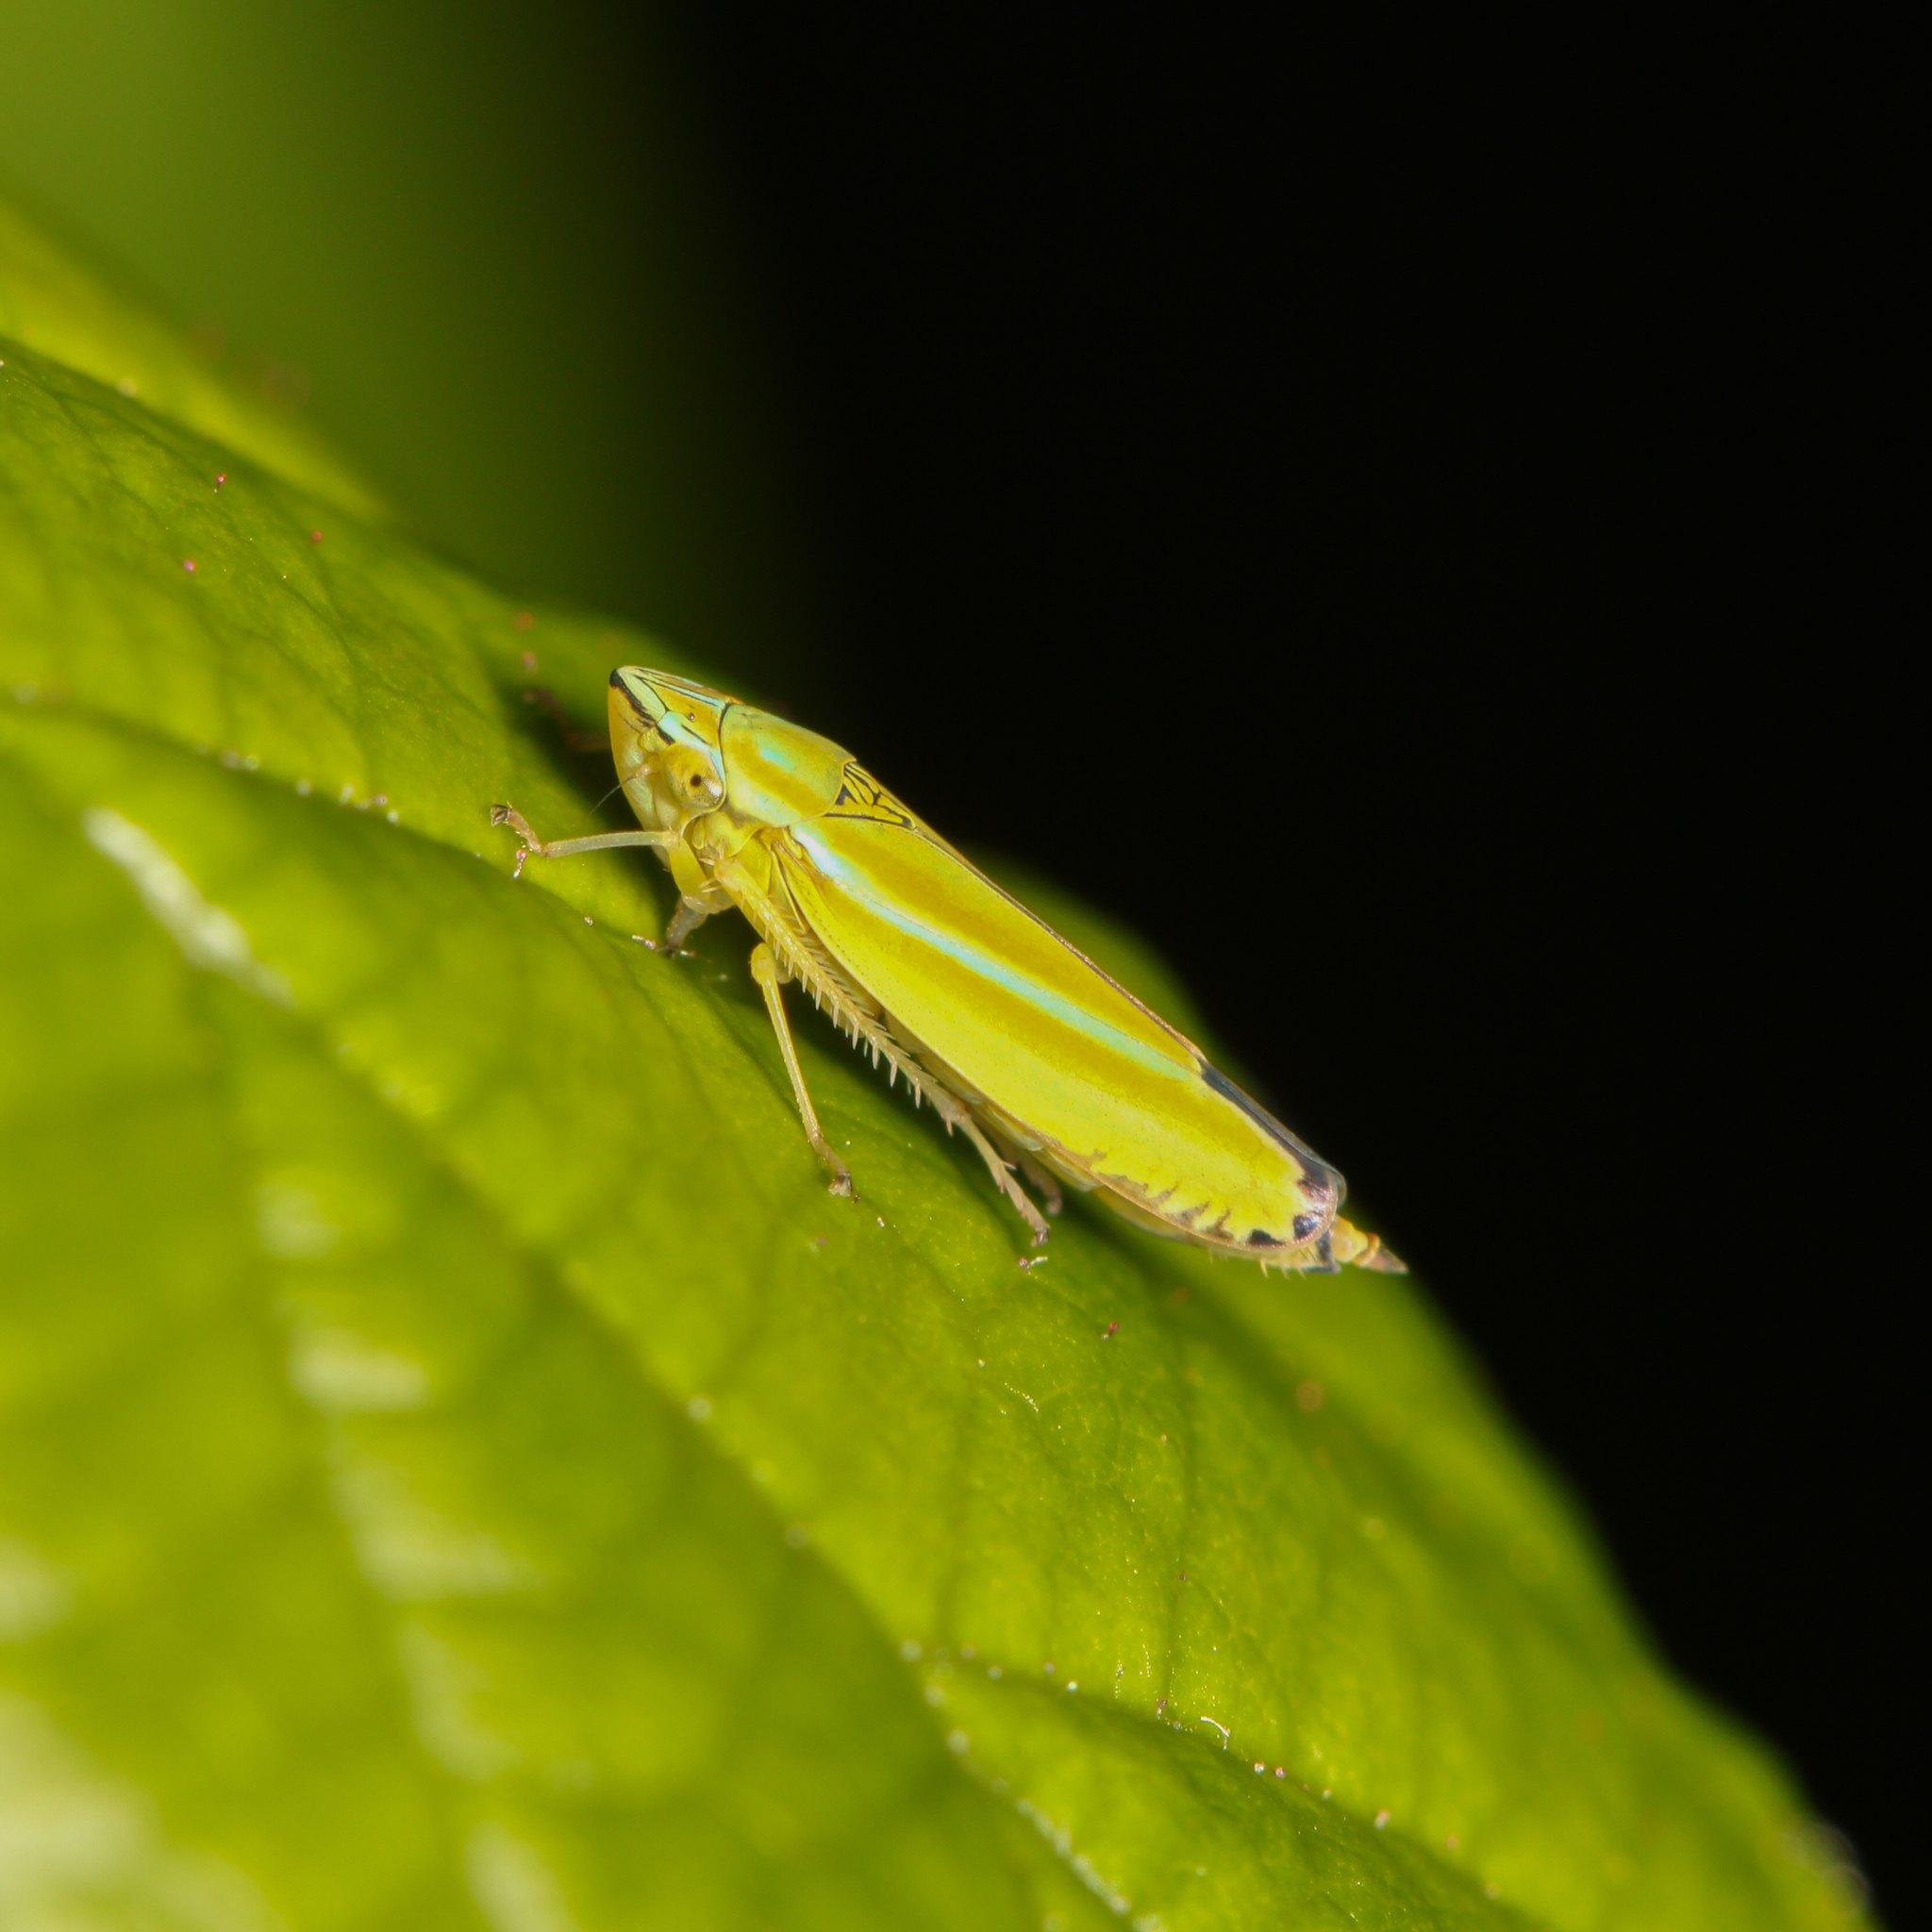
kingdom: Animalia
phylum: Arthropoda
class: Insecta
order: Hemiptera
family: Cicadellidae
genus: Graphocephala
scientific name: Graphocephala versuta
